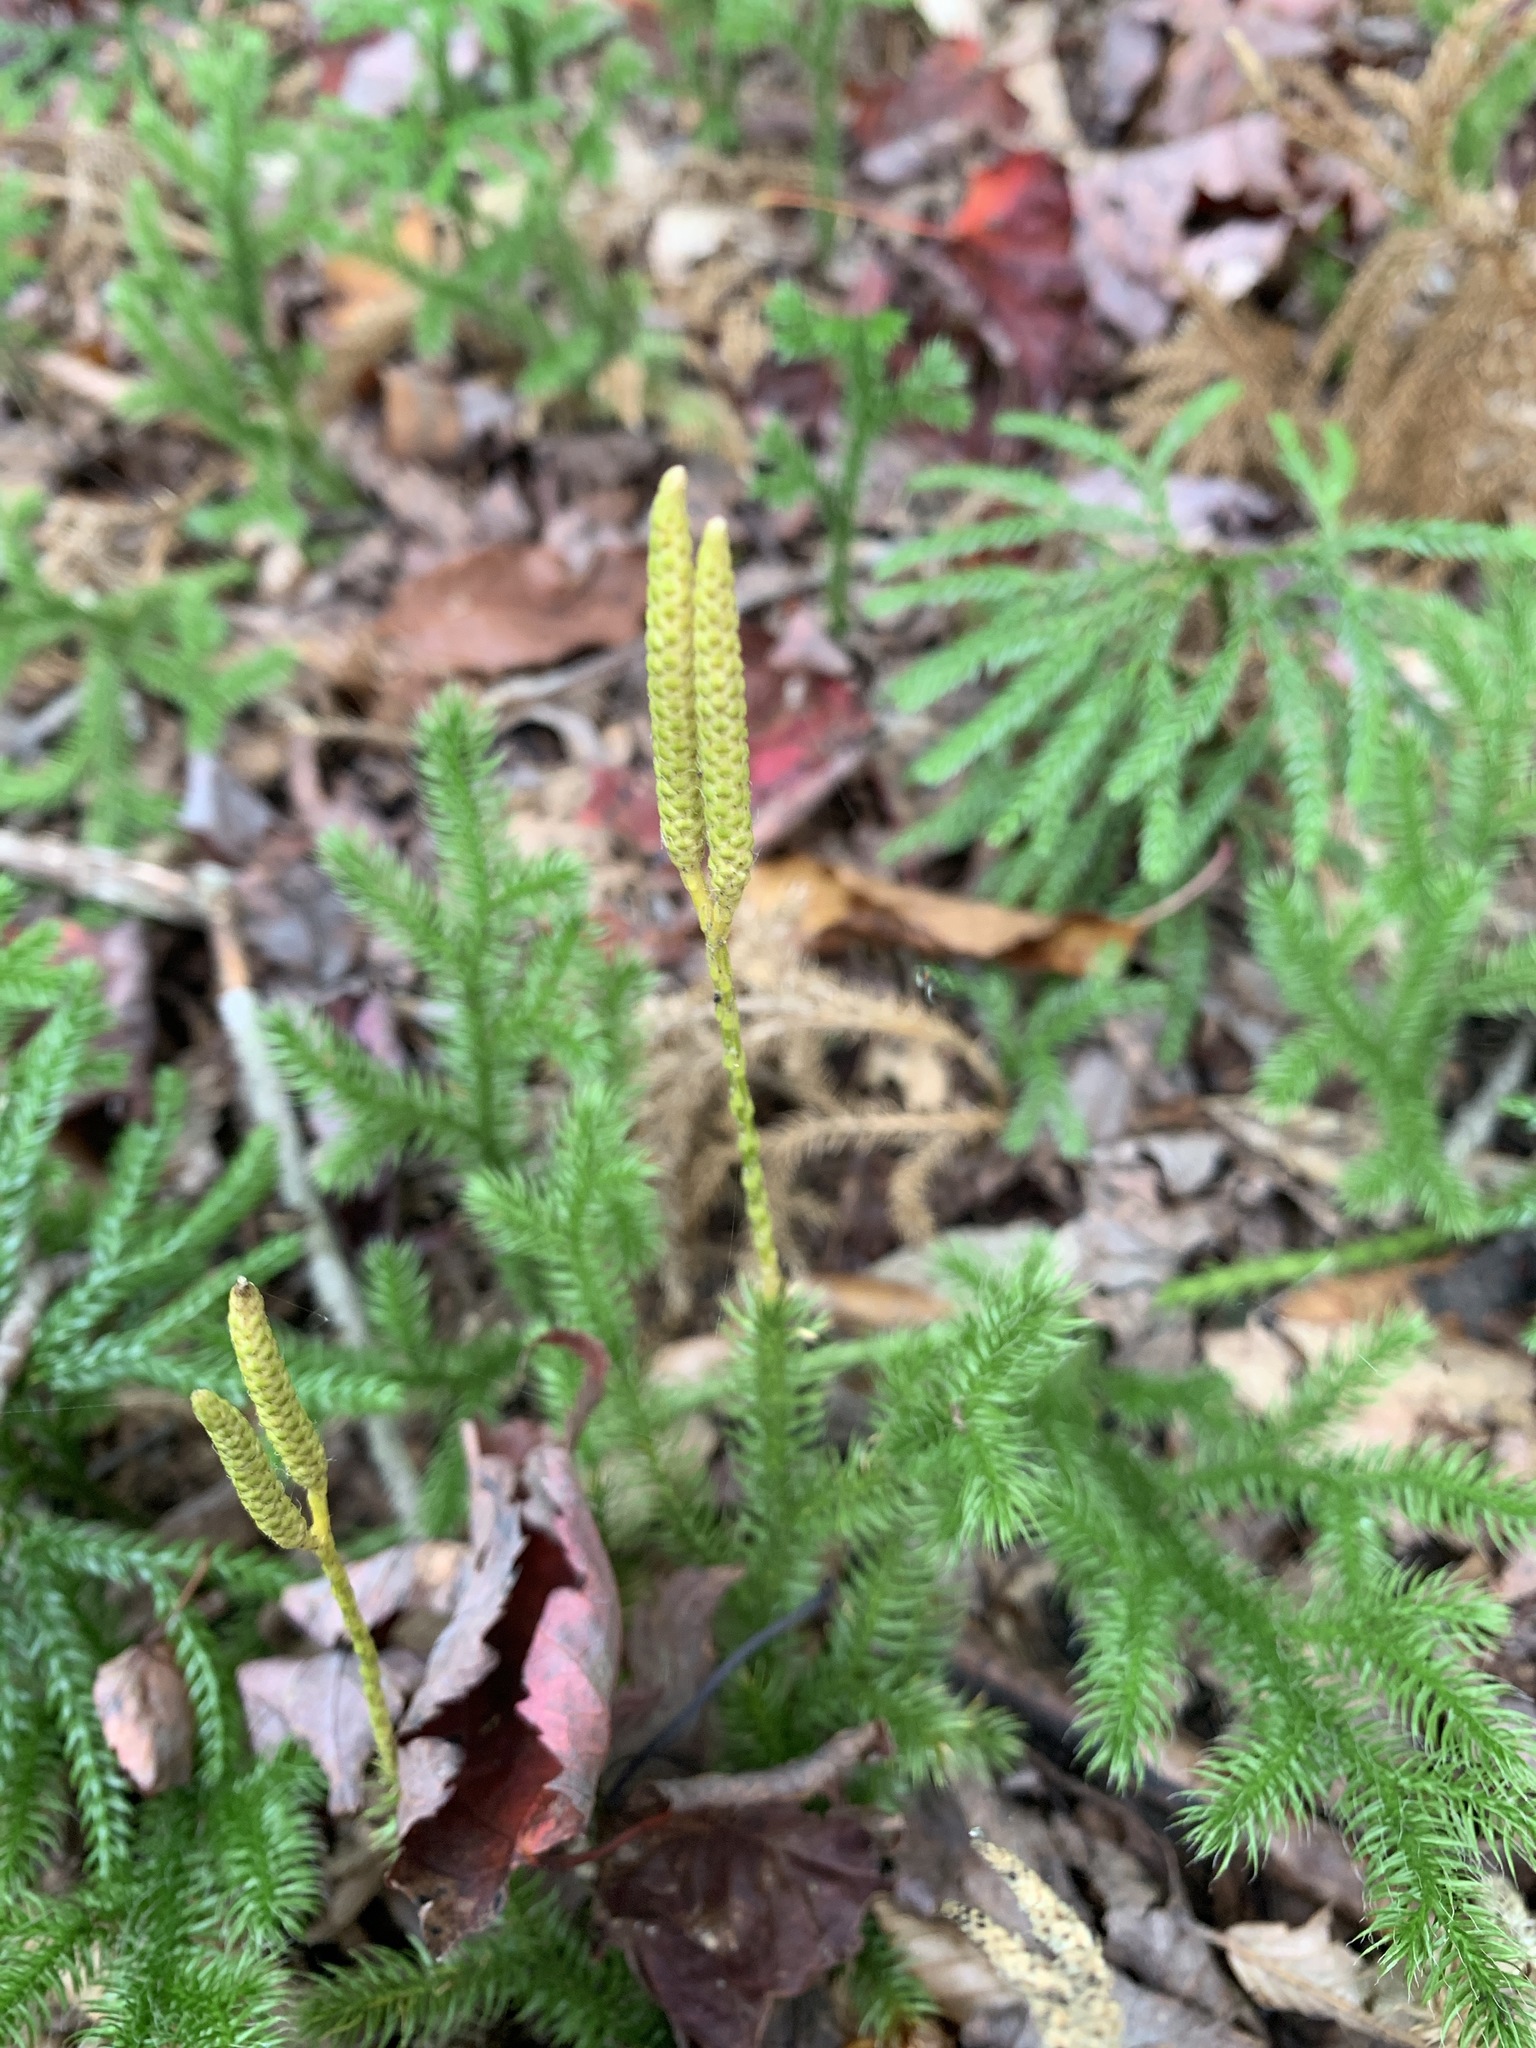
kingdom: Plantae
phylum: Tracheophyta
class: Lycopodiopsida
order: Lycopodiales
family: Lycopodiaceae
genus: Lycopodium
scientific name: Lycopodium clavatum
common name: Stag's-horn clubmoss
